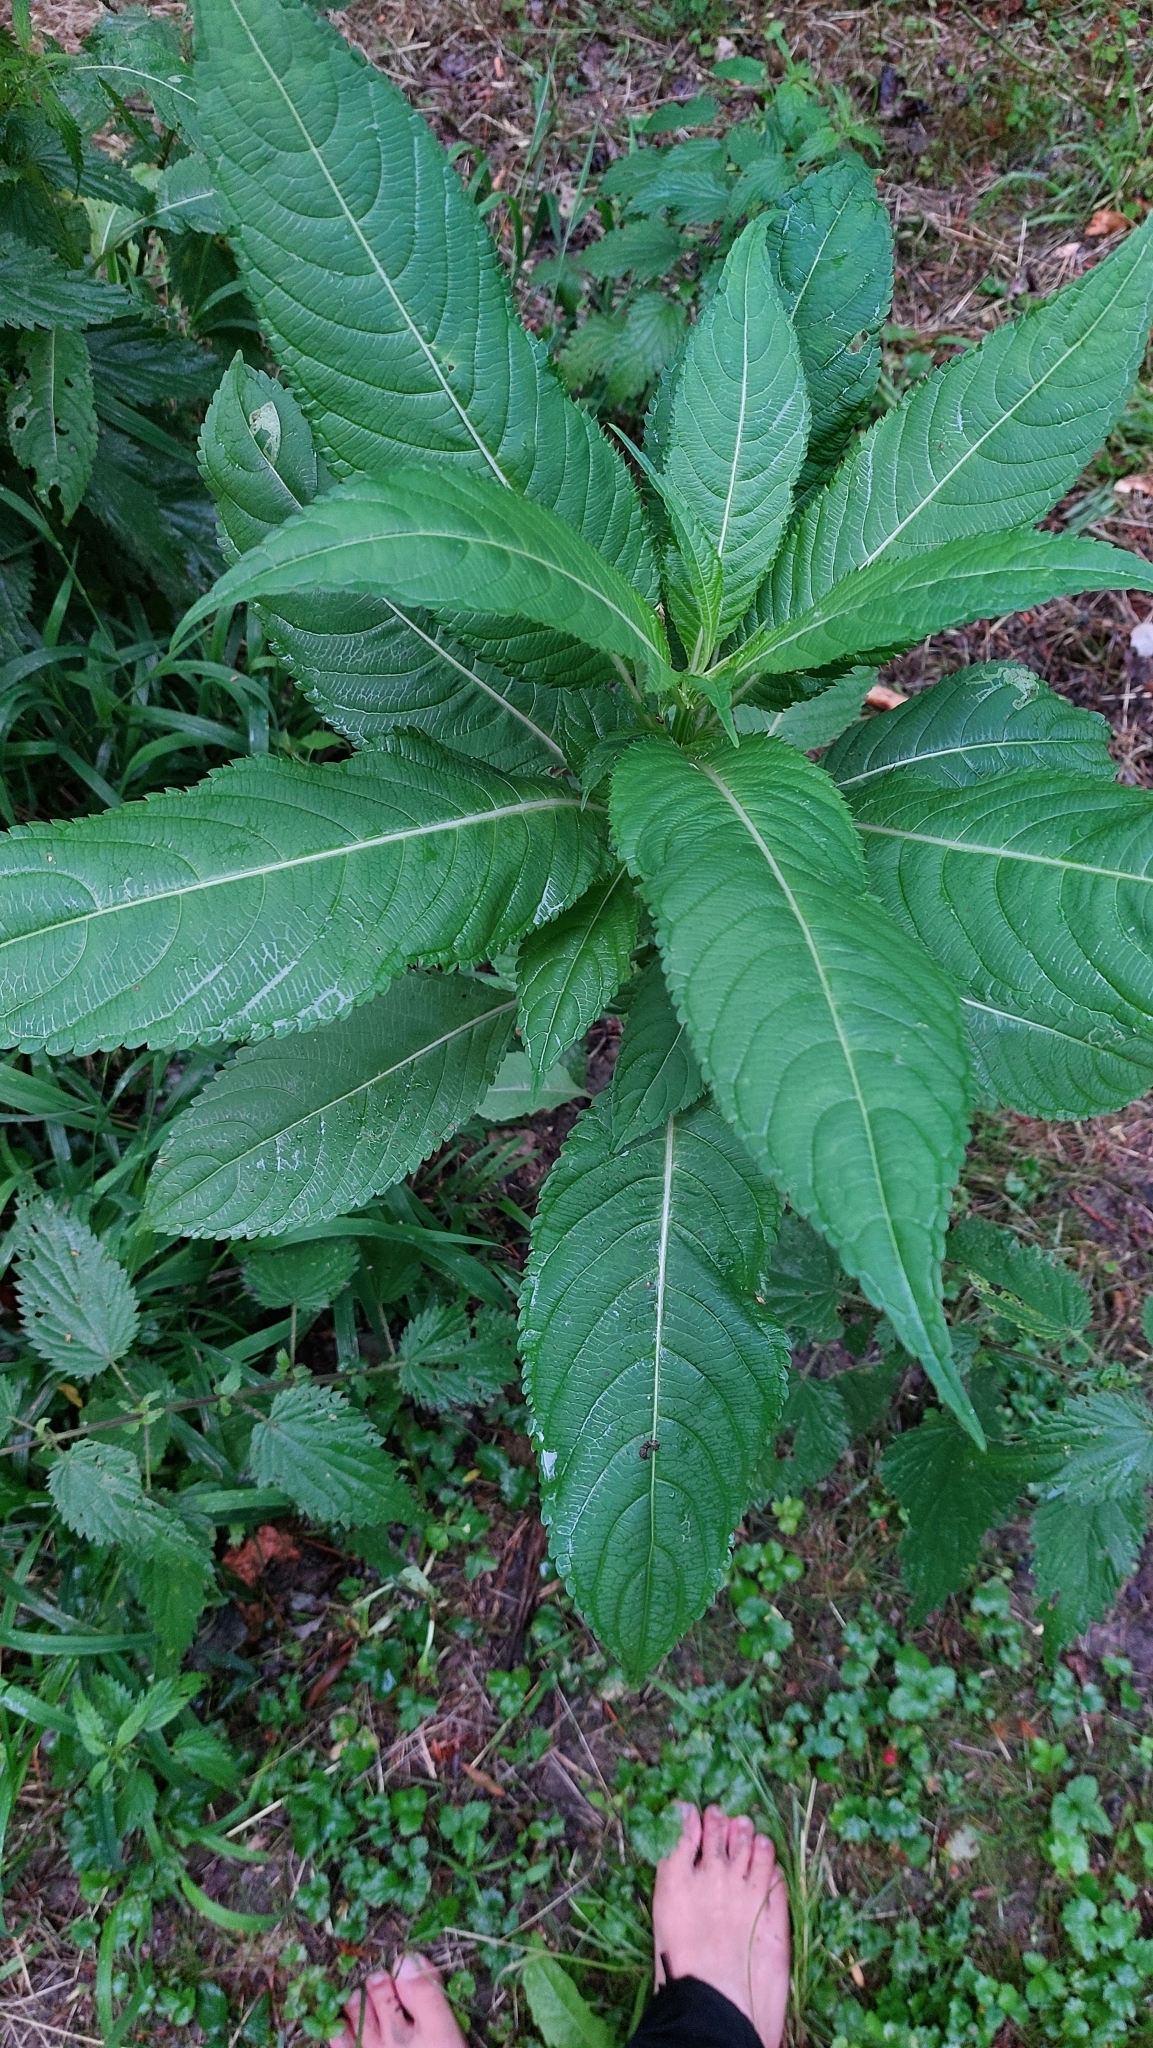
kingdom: Plantae
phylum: Tracheophyta
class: Magnoliopsida
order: Ericales
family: Balsaminaceae
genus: Impatiens
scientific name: Impatiens glandulifera
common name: Himalayan balsam
